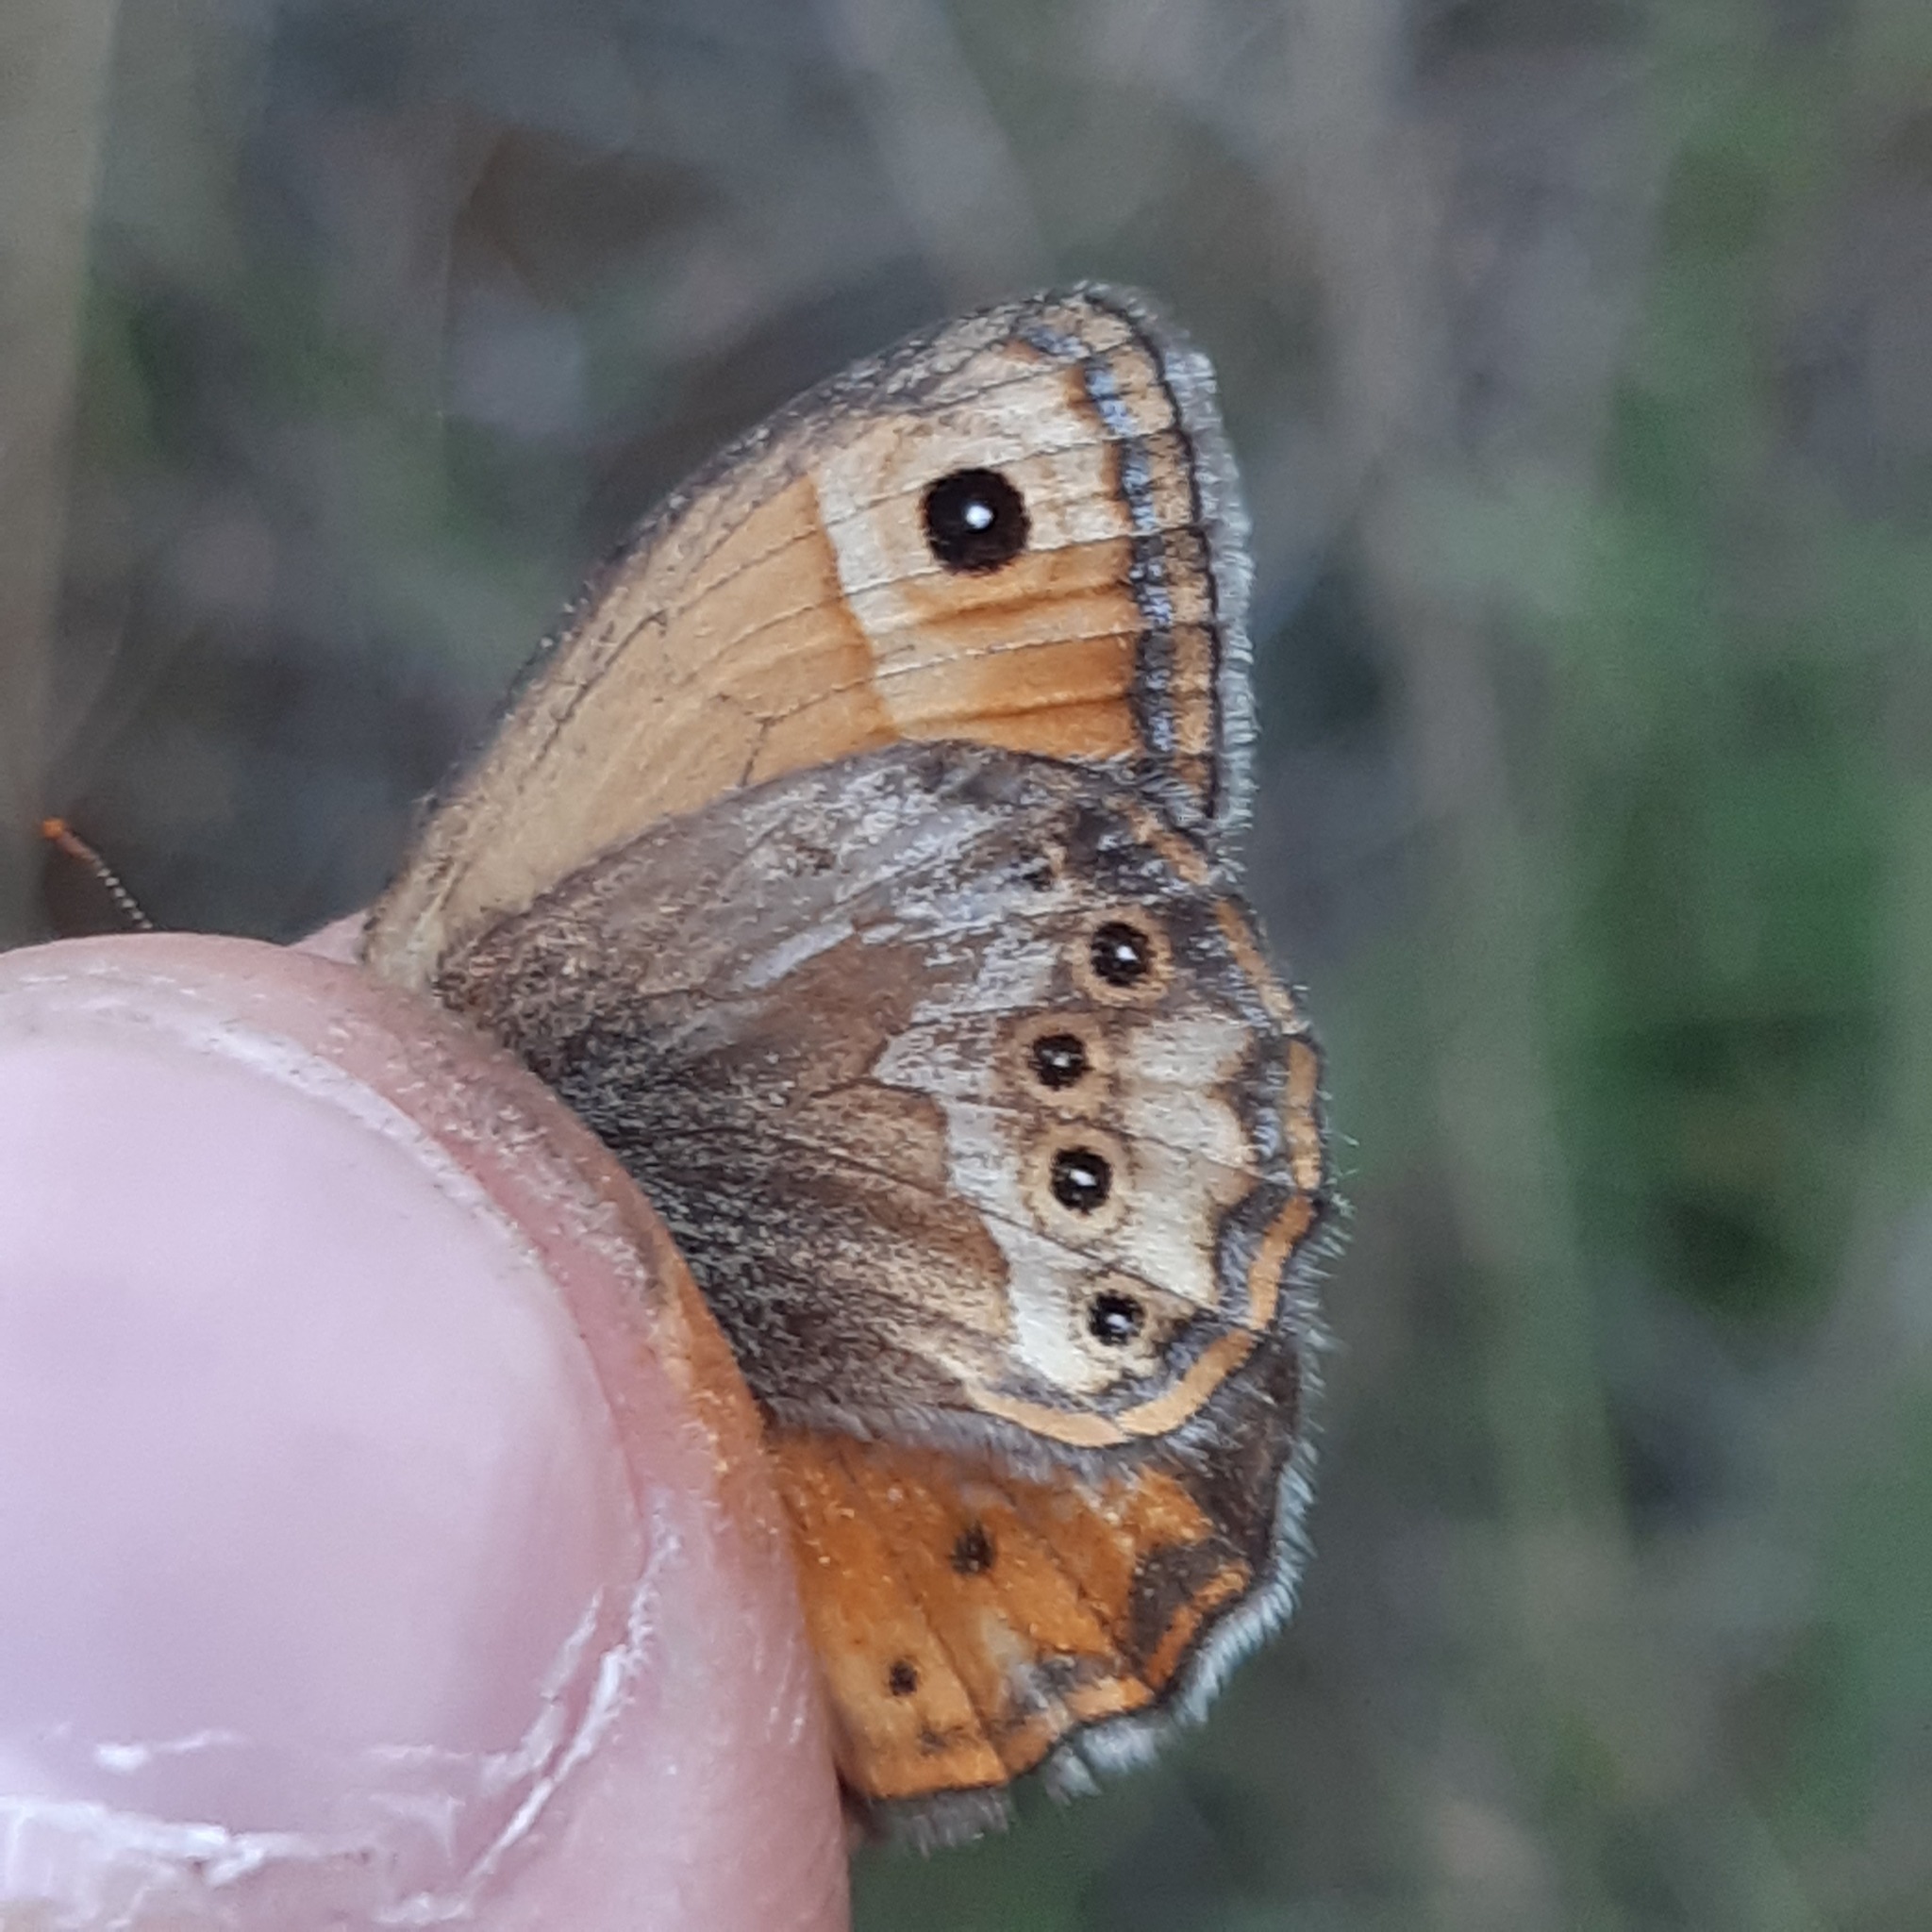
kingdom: Animalia
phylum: Arthropoda
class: Insecta
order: Lepidoptera
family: Nymphalidae
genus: Coenonympha
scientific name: Coenonympha dorus
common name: Dusky heath
